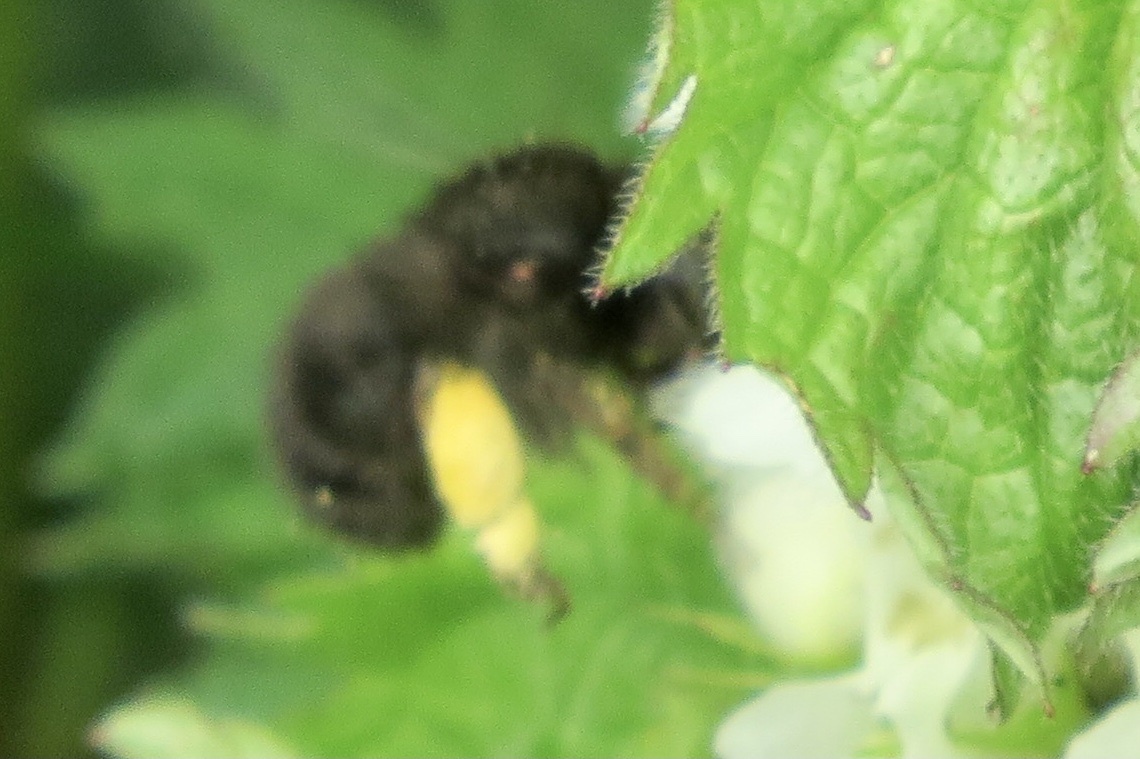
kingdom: Animalia
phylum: Arthropoda
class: Insecta
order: Hymenoptera
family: Apidae
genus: Anthophora
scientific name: Anthophora plumipes
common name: Hairy-footed flower bee
